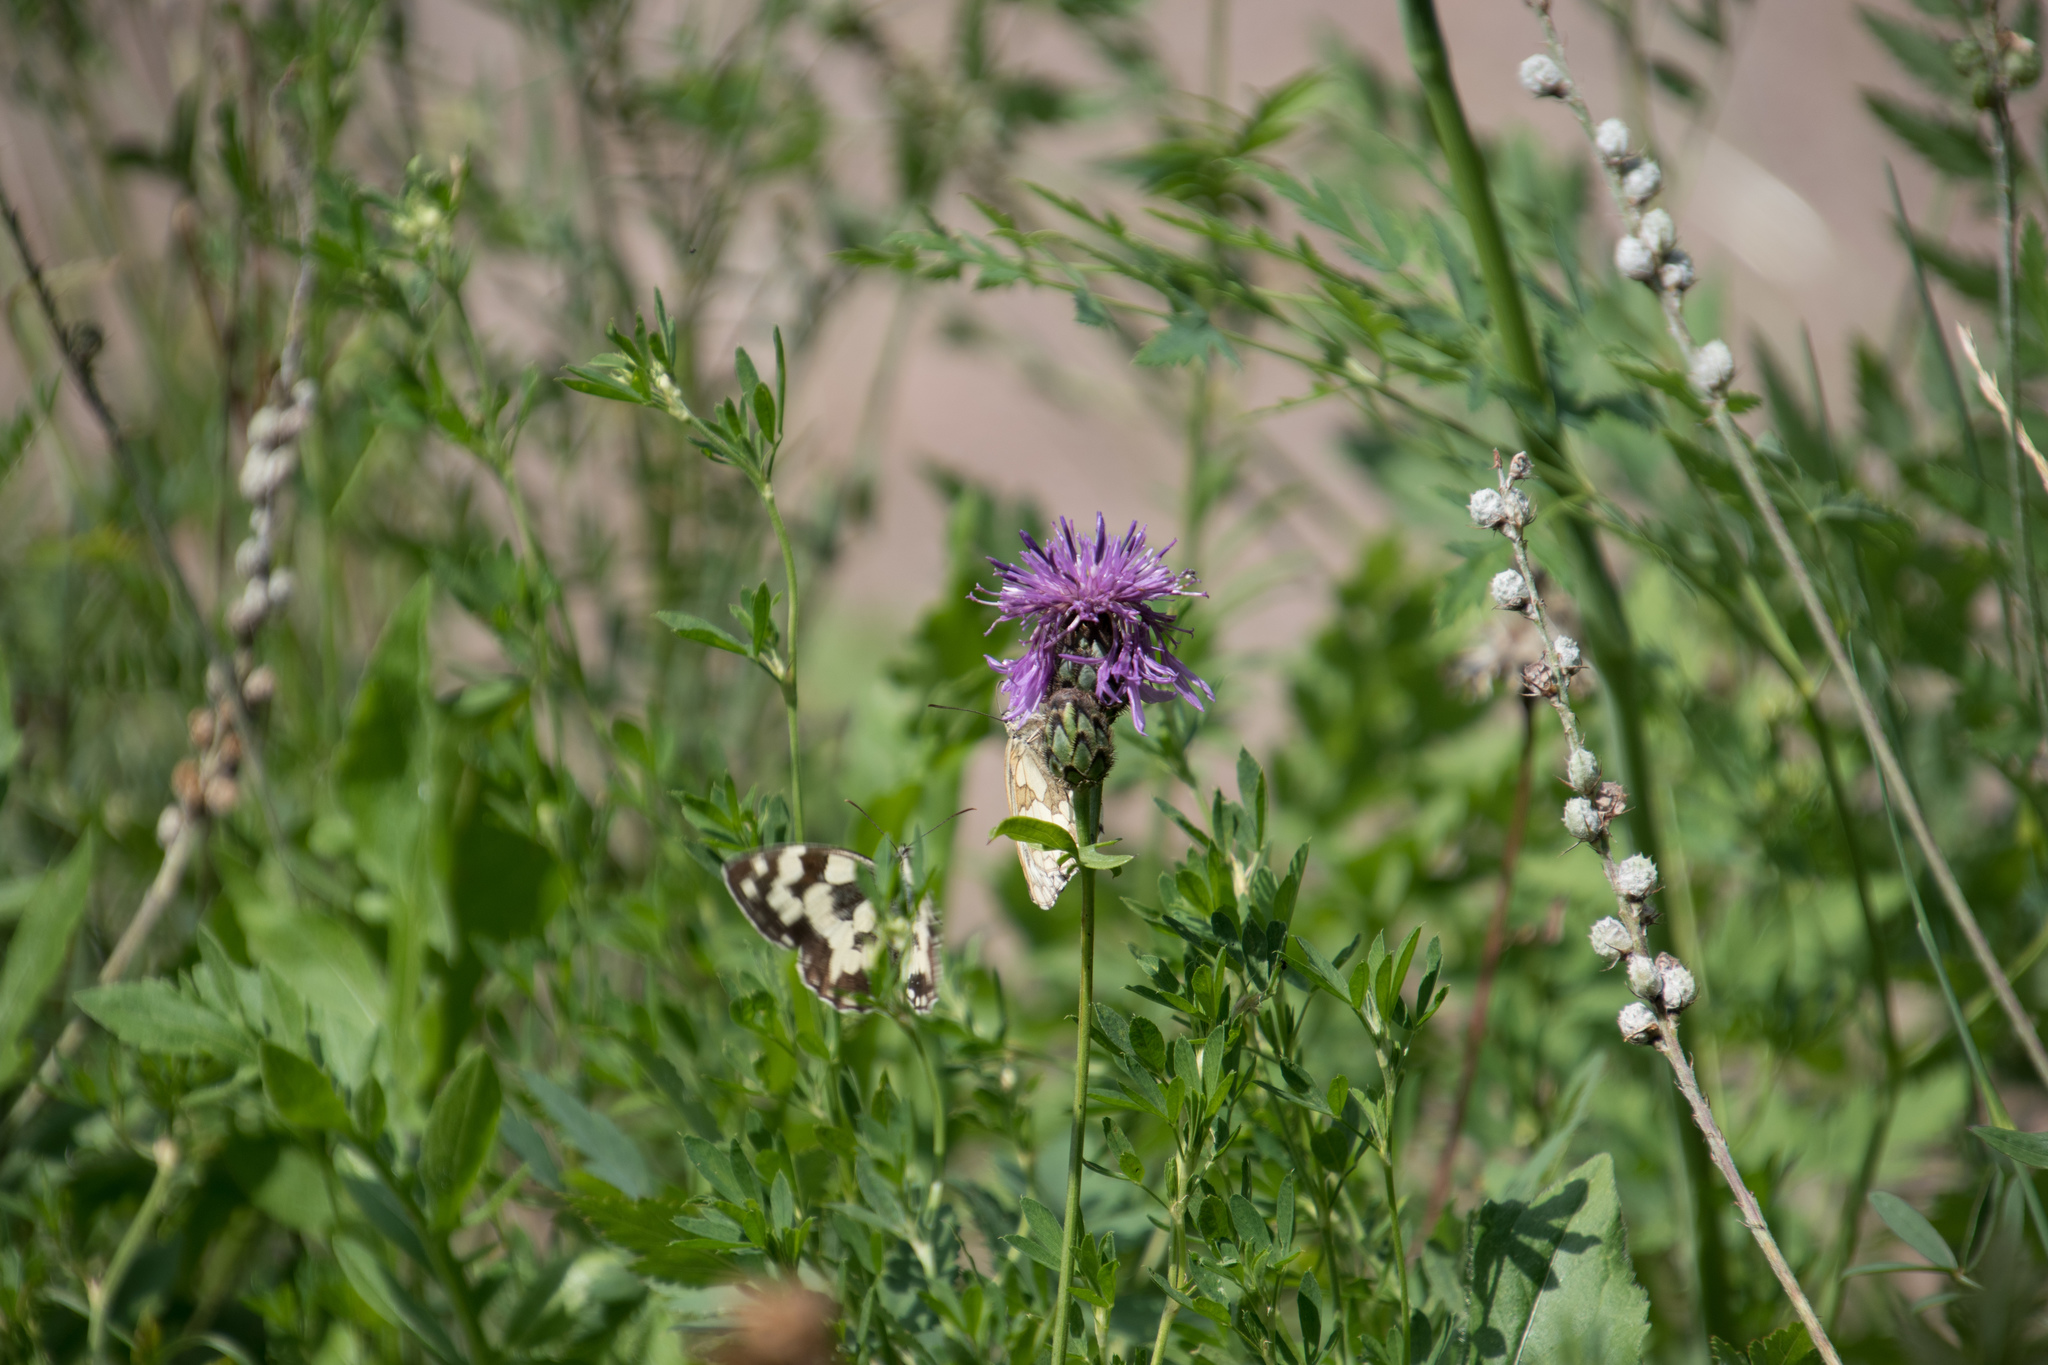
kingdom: Animalia
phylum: Arthropoda
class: Insecta
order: Lepidoptera
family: Nymphalidae
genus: Melanargia
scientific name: Melanargia galathea
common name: Marbled white
